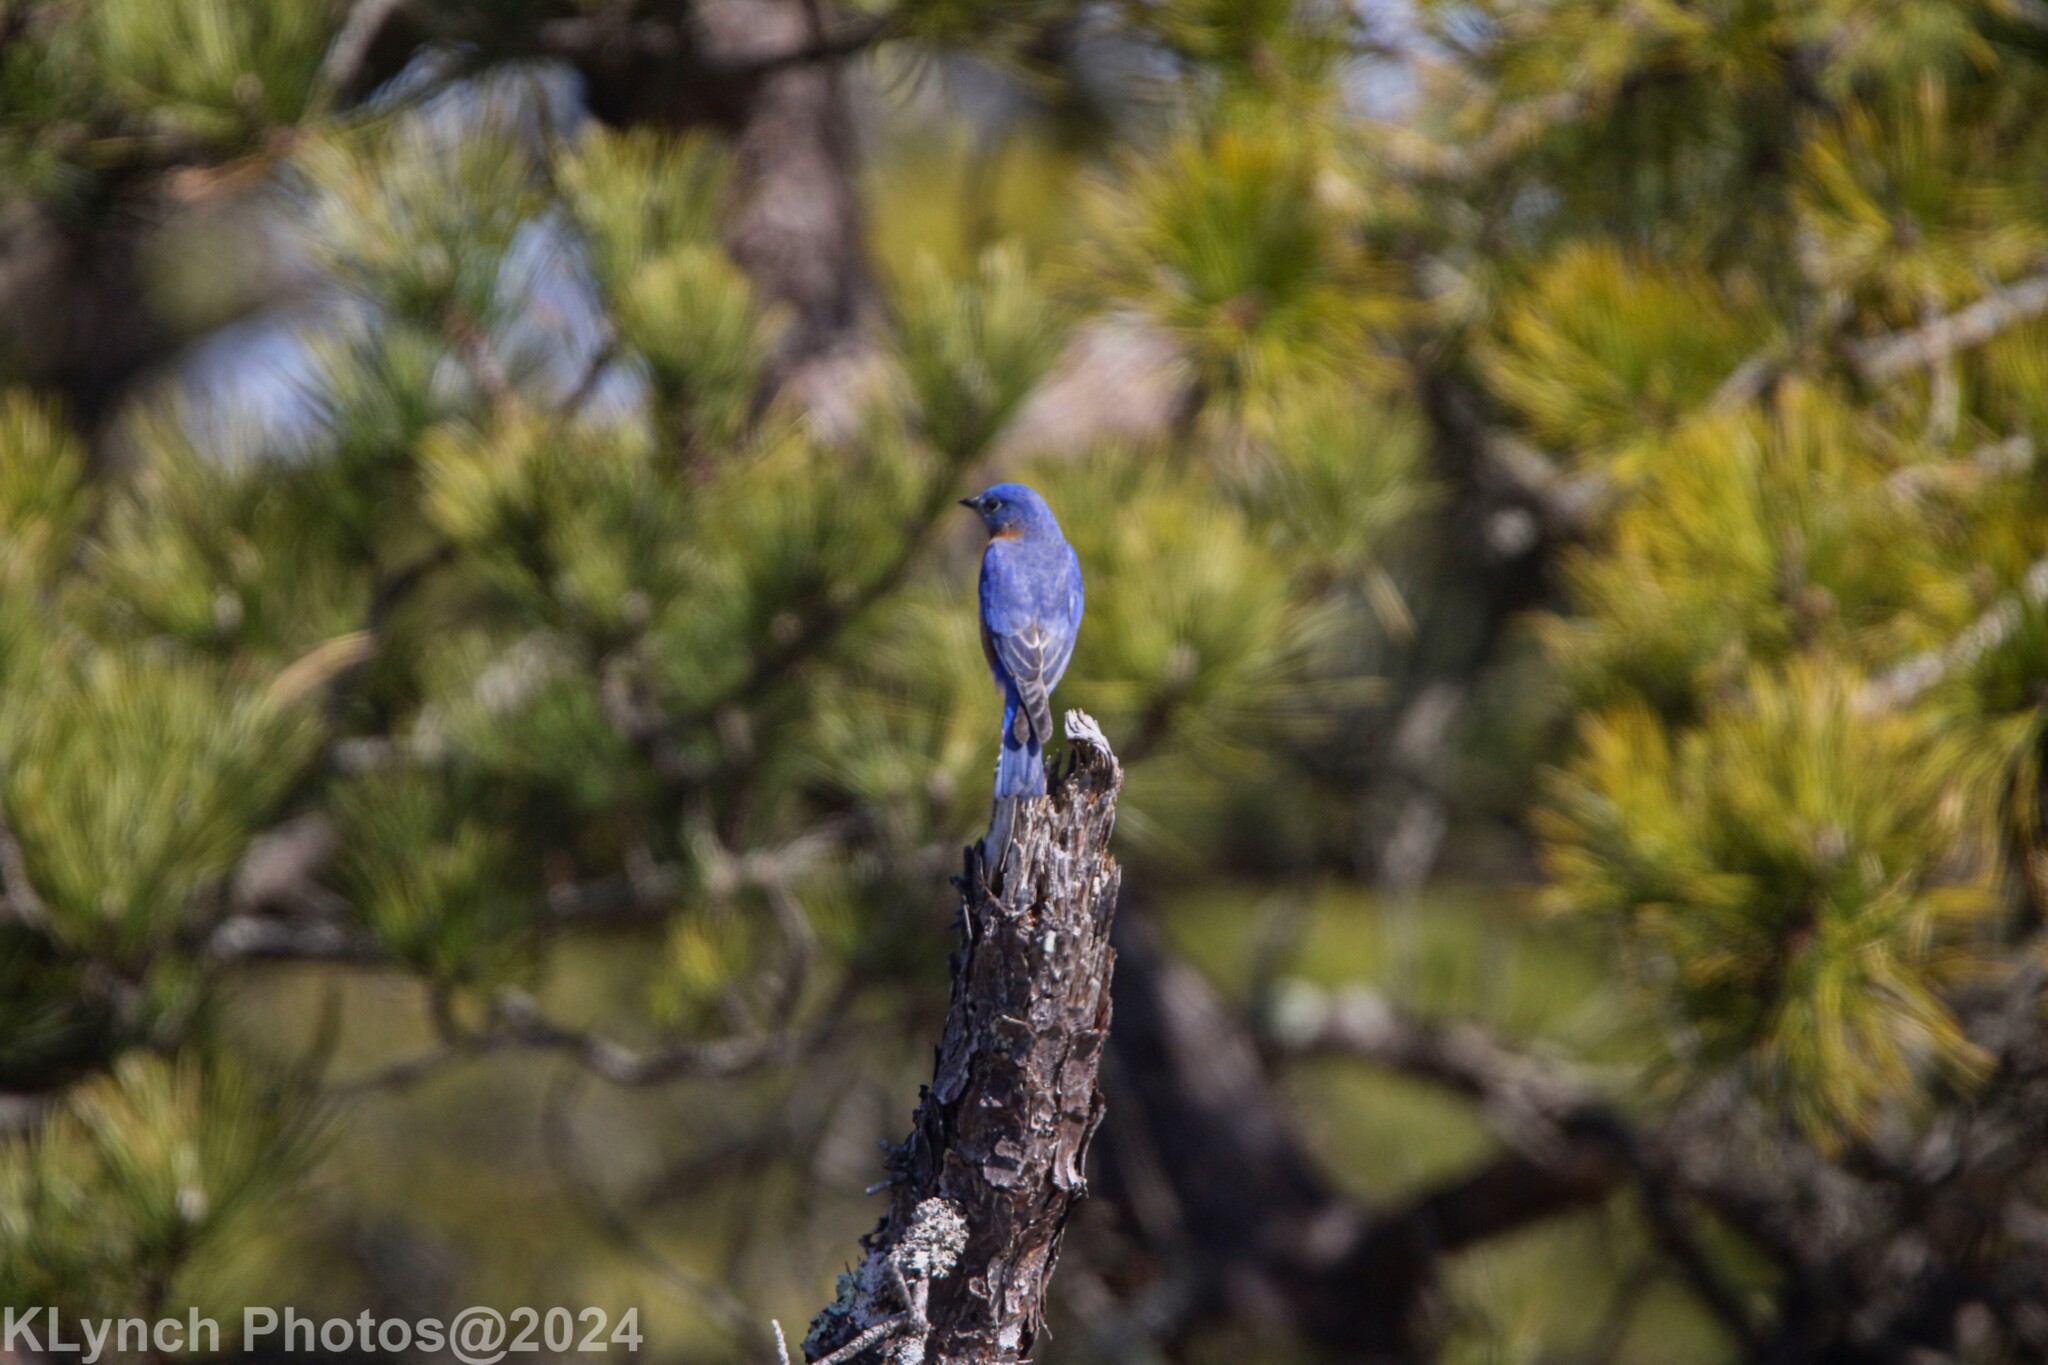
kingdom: Animalia
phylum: Chordata
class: Aves
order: Passeriformes
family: Turdidae
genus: Sialia
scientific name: Sialia sialis
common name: Eastern bluebird
